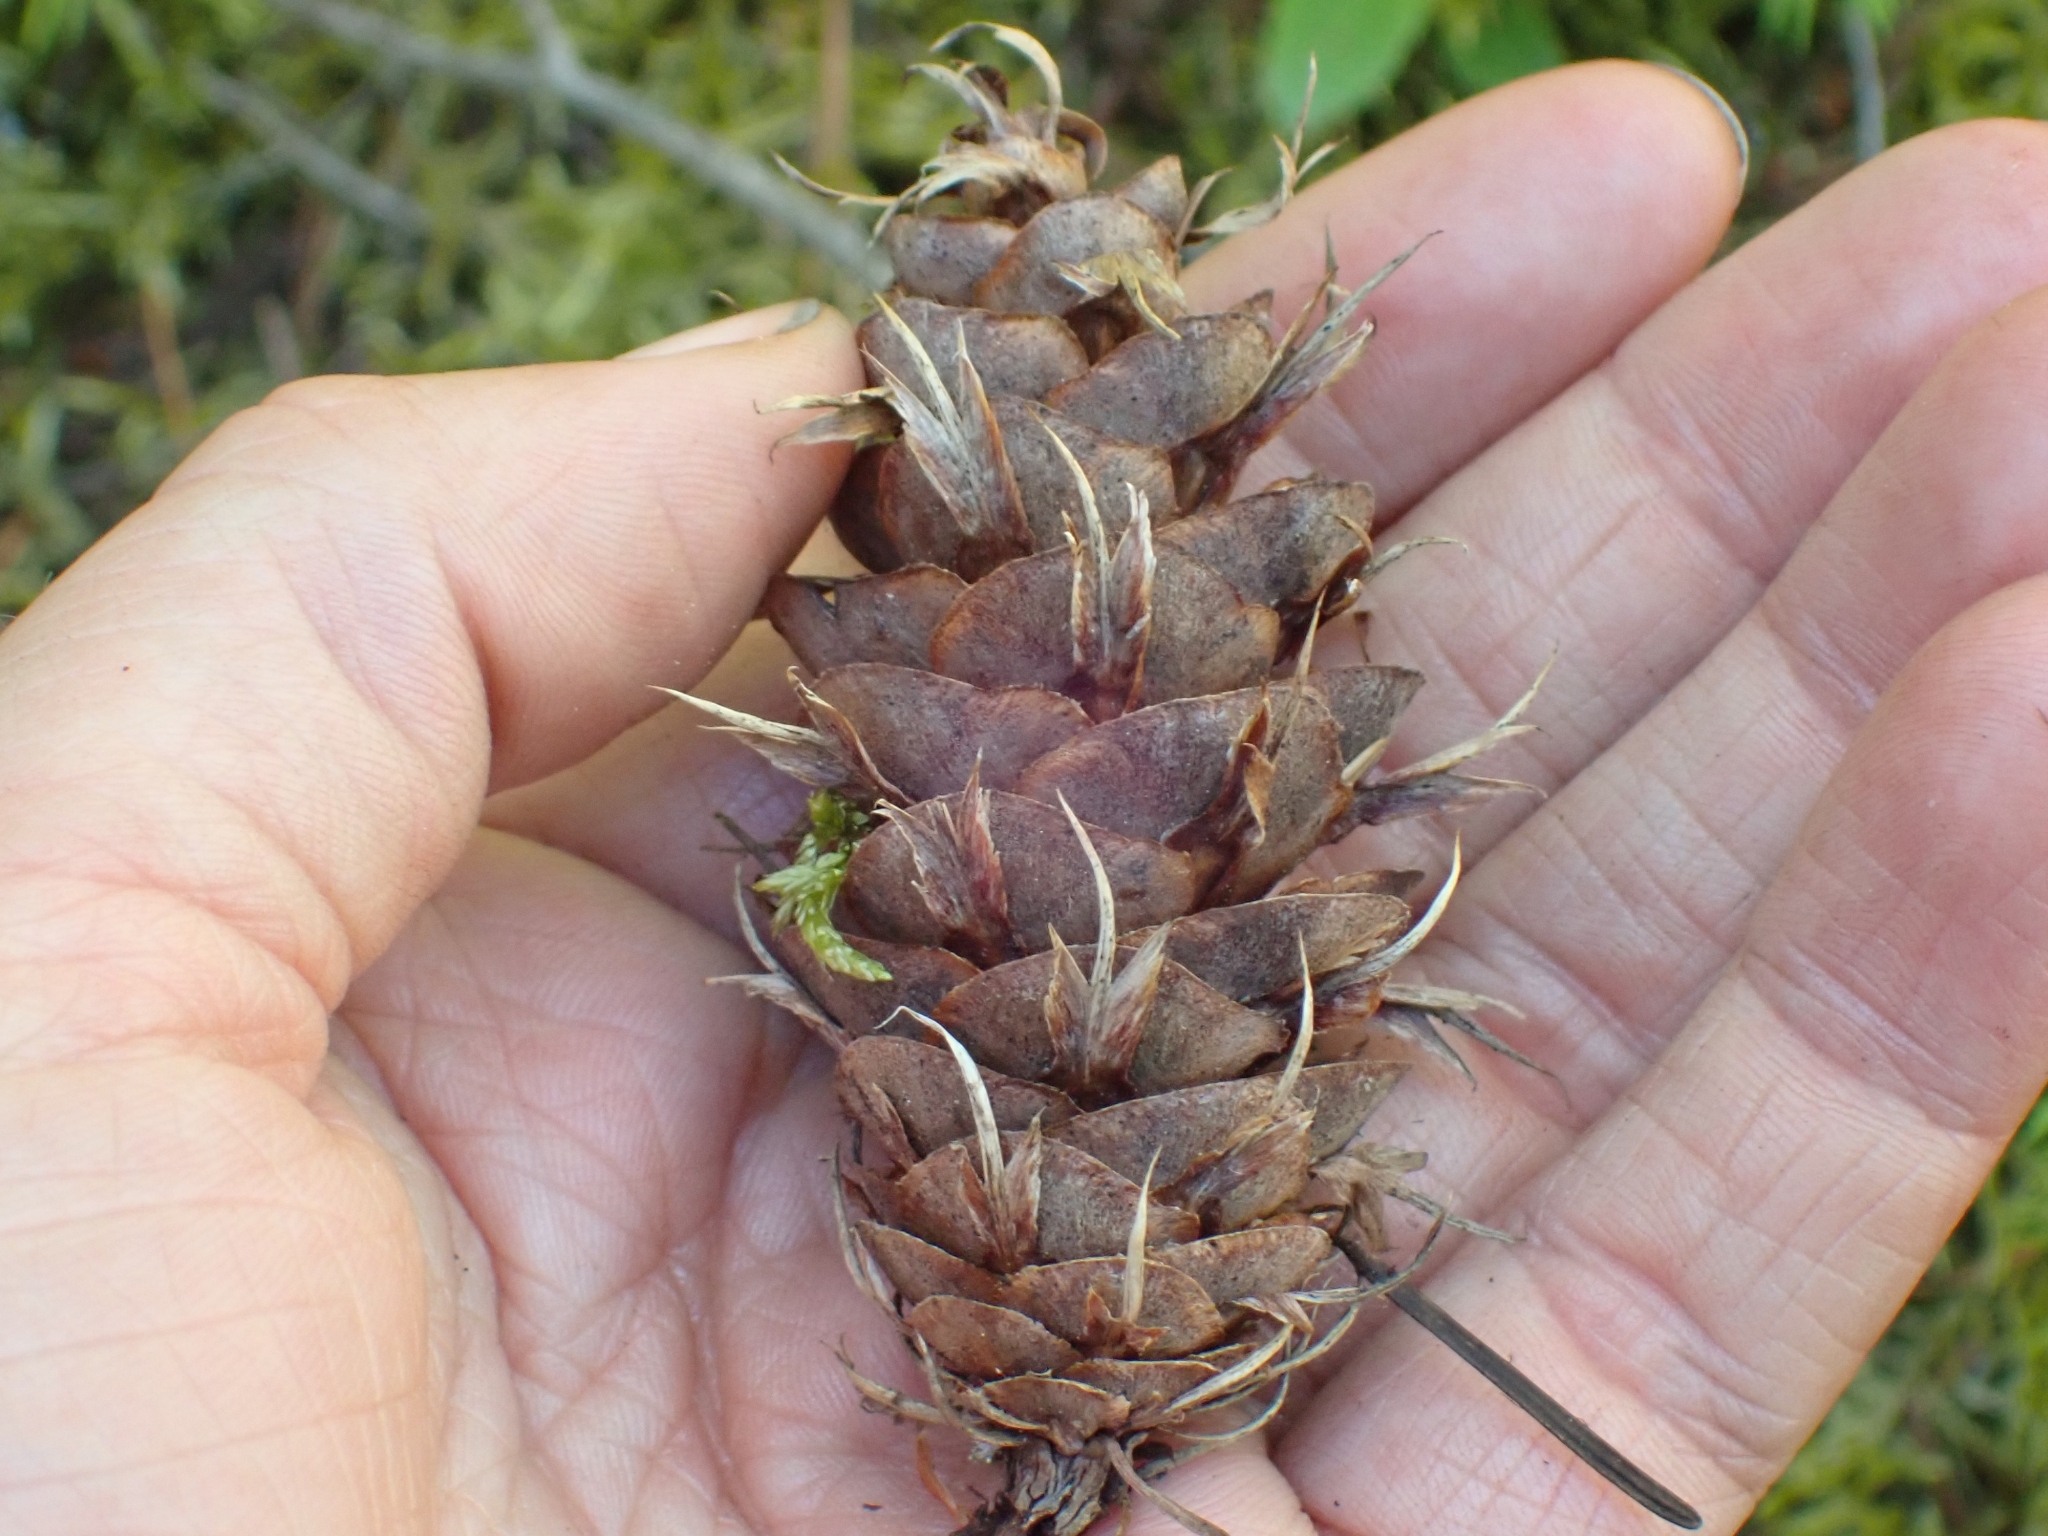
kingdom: Plantae
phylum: Tracheophyta
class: Pinopsida
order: Pinales
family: Pinaceae
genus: Pseudotsuga
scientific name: Pseudotsuga menziesii
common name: Douglas fir
